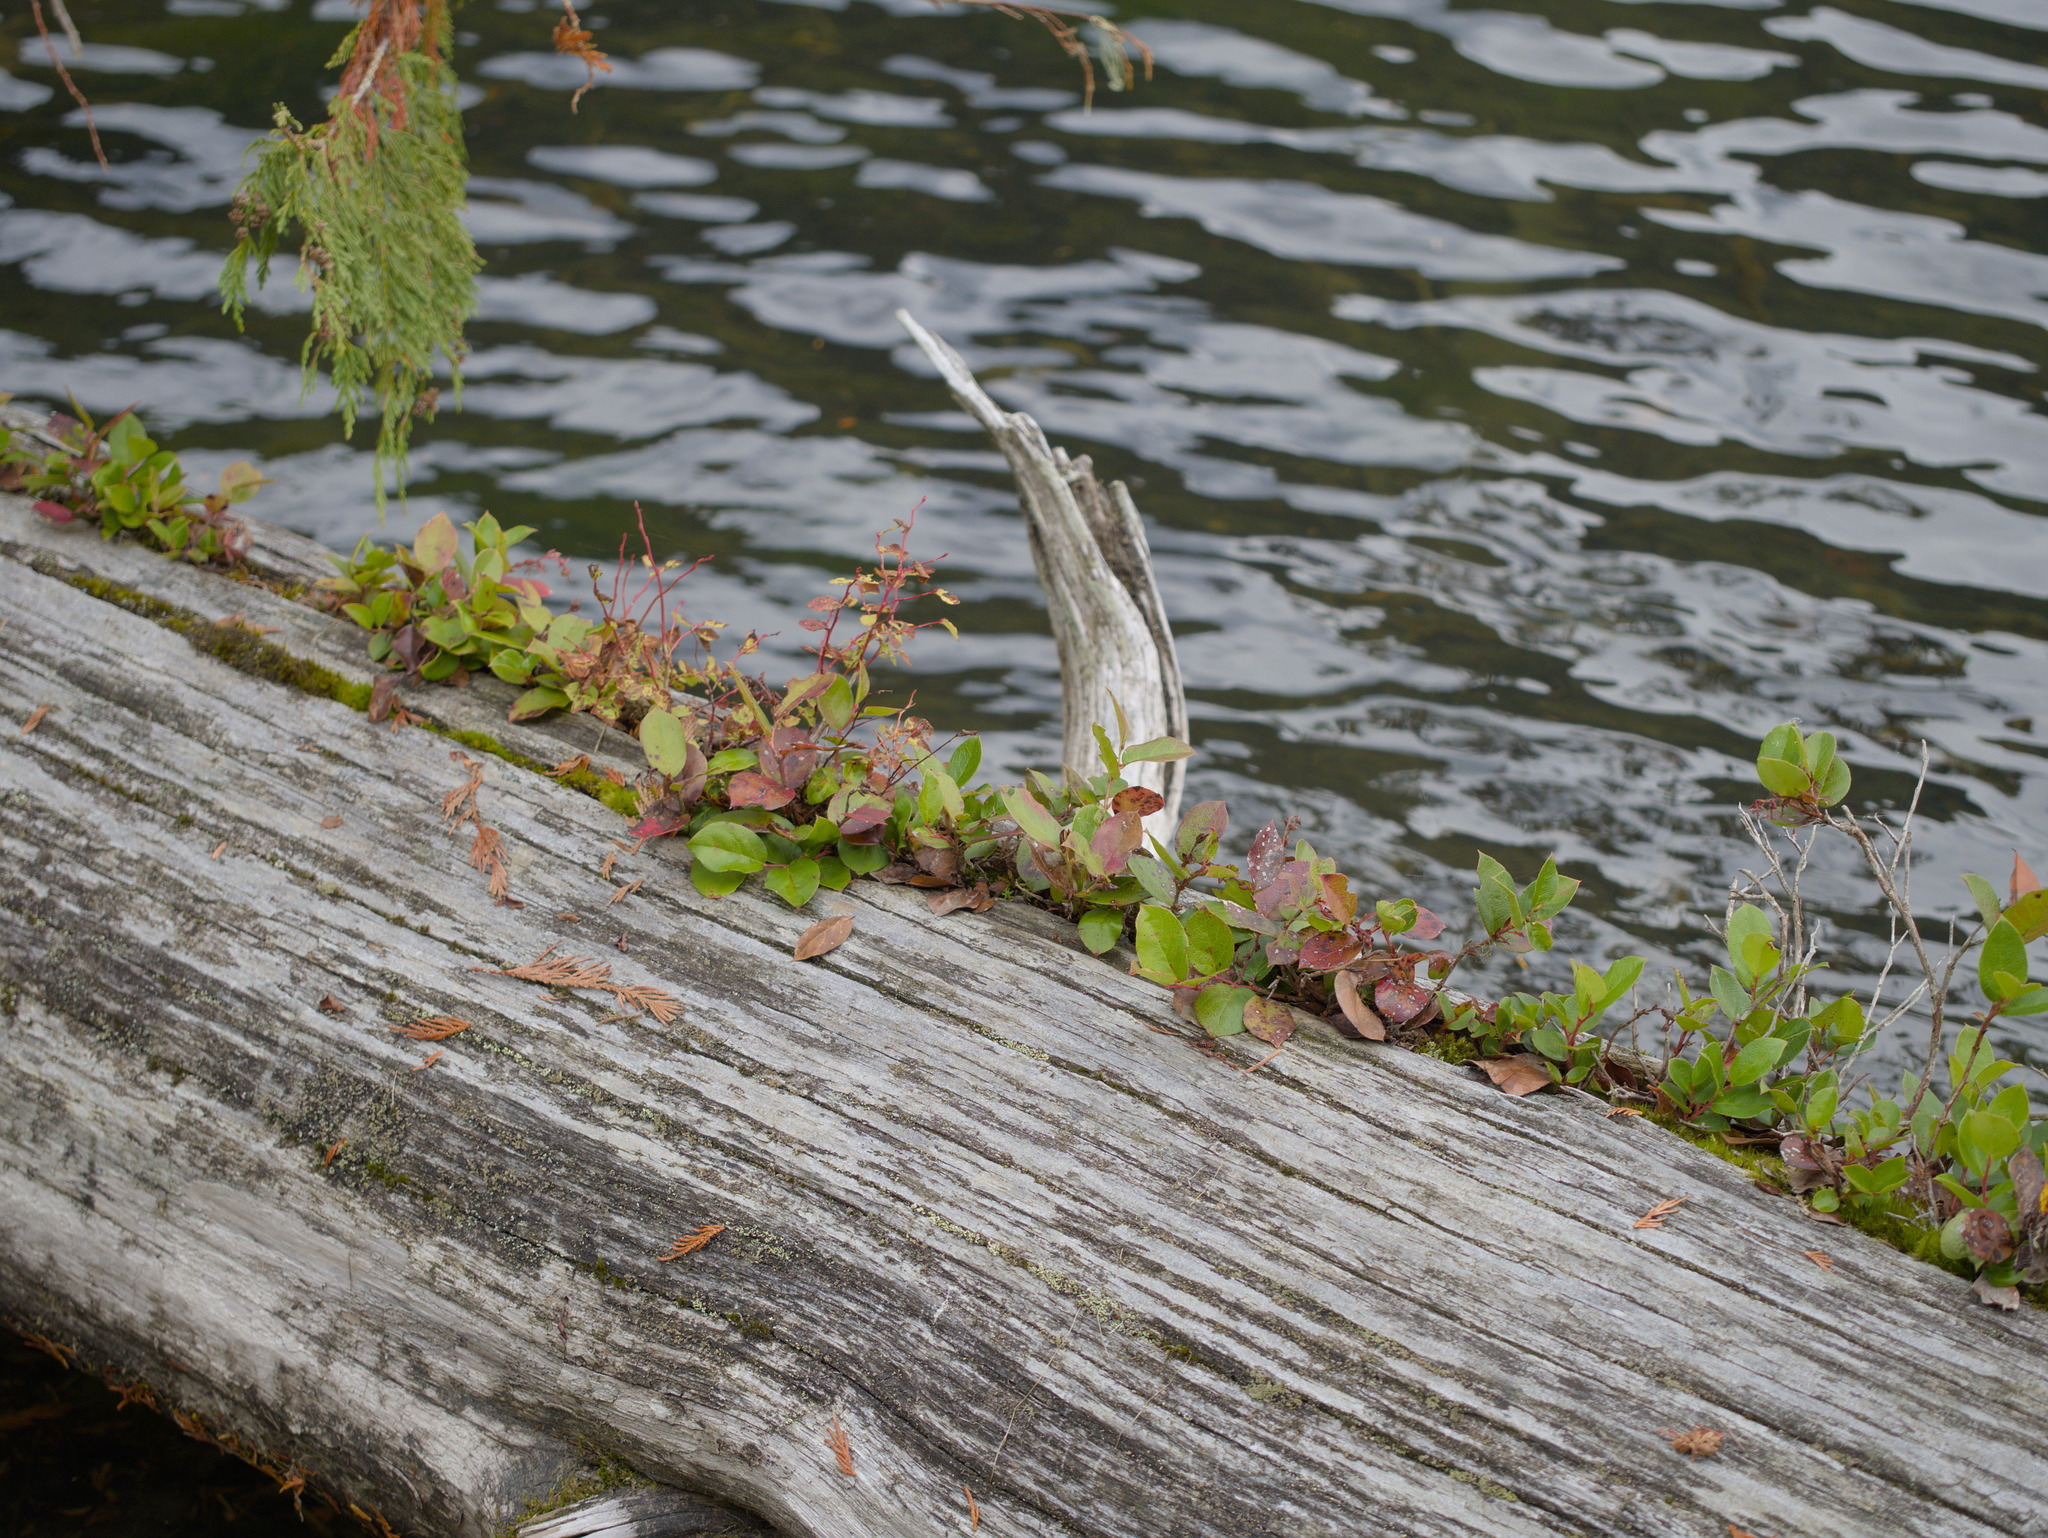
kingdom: Plantae
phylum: Tracheophyta
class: Magnoliopsida
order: Ericales
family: Ericaceae
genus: Gaultheria
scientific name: Gaultheria shallon
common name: Shallon
